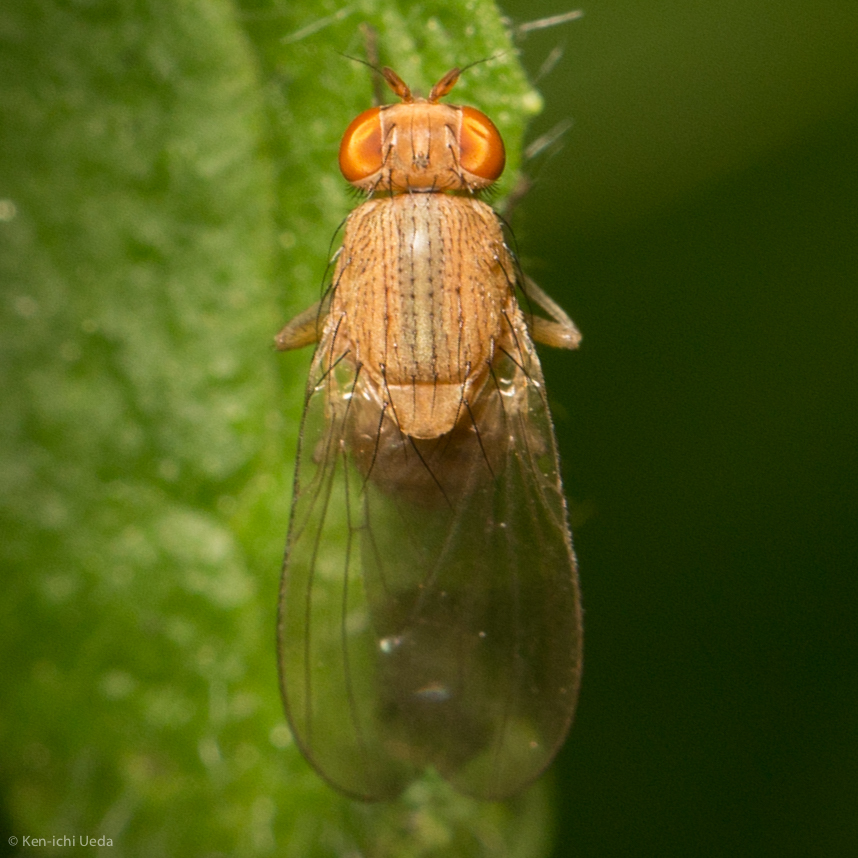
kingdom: Animalia
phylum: Arthropoda
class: Insecta
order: Diptera
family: Lauxaniidae
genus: Minettia
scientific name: Minettia flaveola
